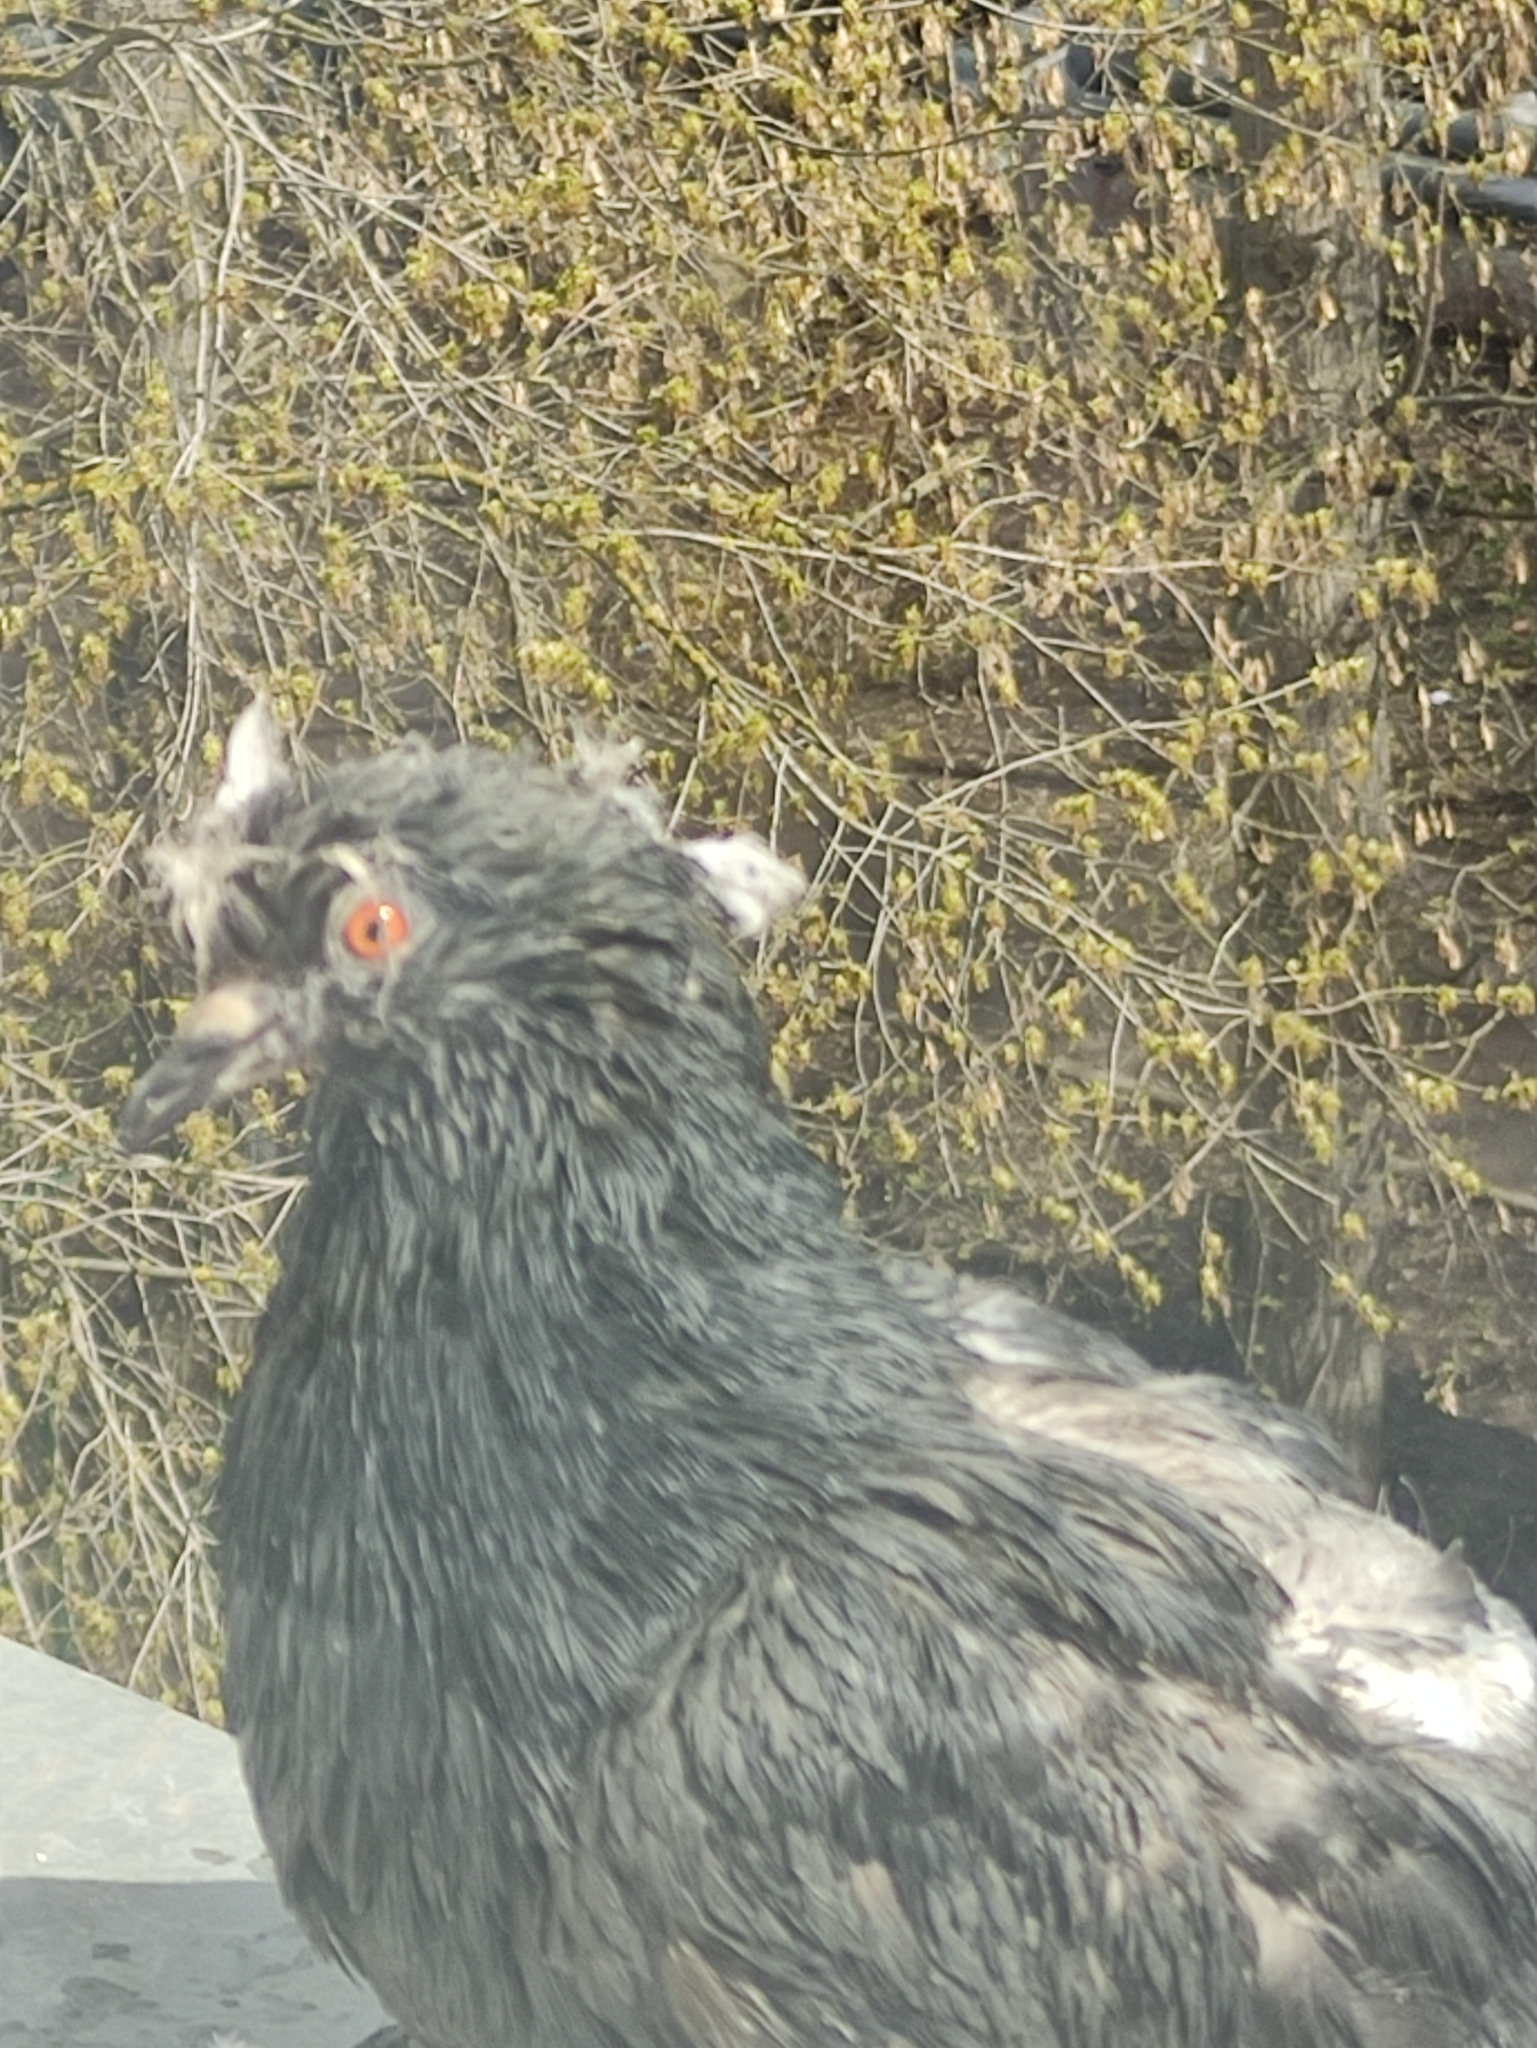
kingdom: Animalia
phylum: Chordata
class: Aves
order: Columbiformes
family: Columbidae
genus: Columba
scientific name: Columba livia
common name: Rock pigeon
